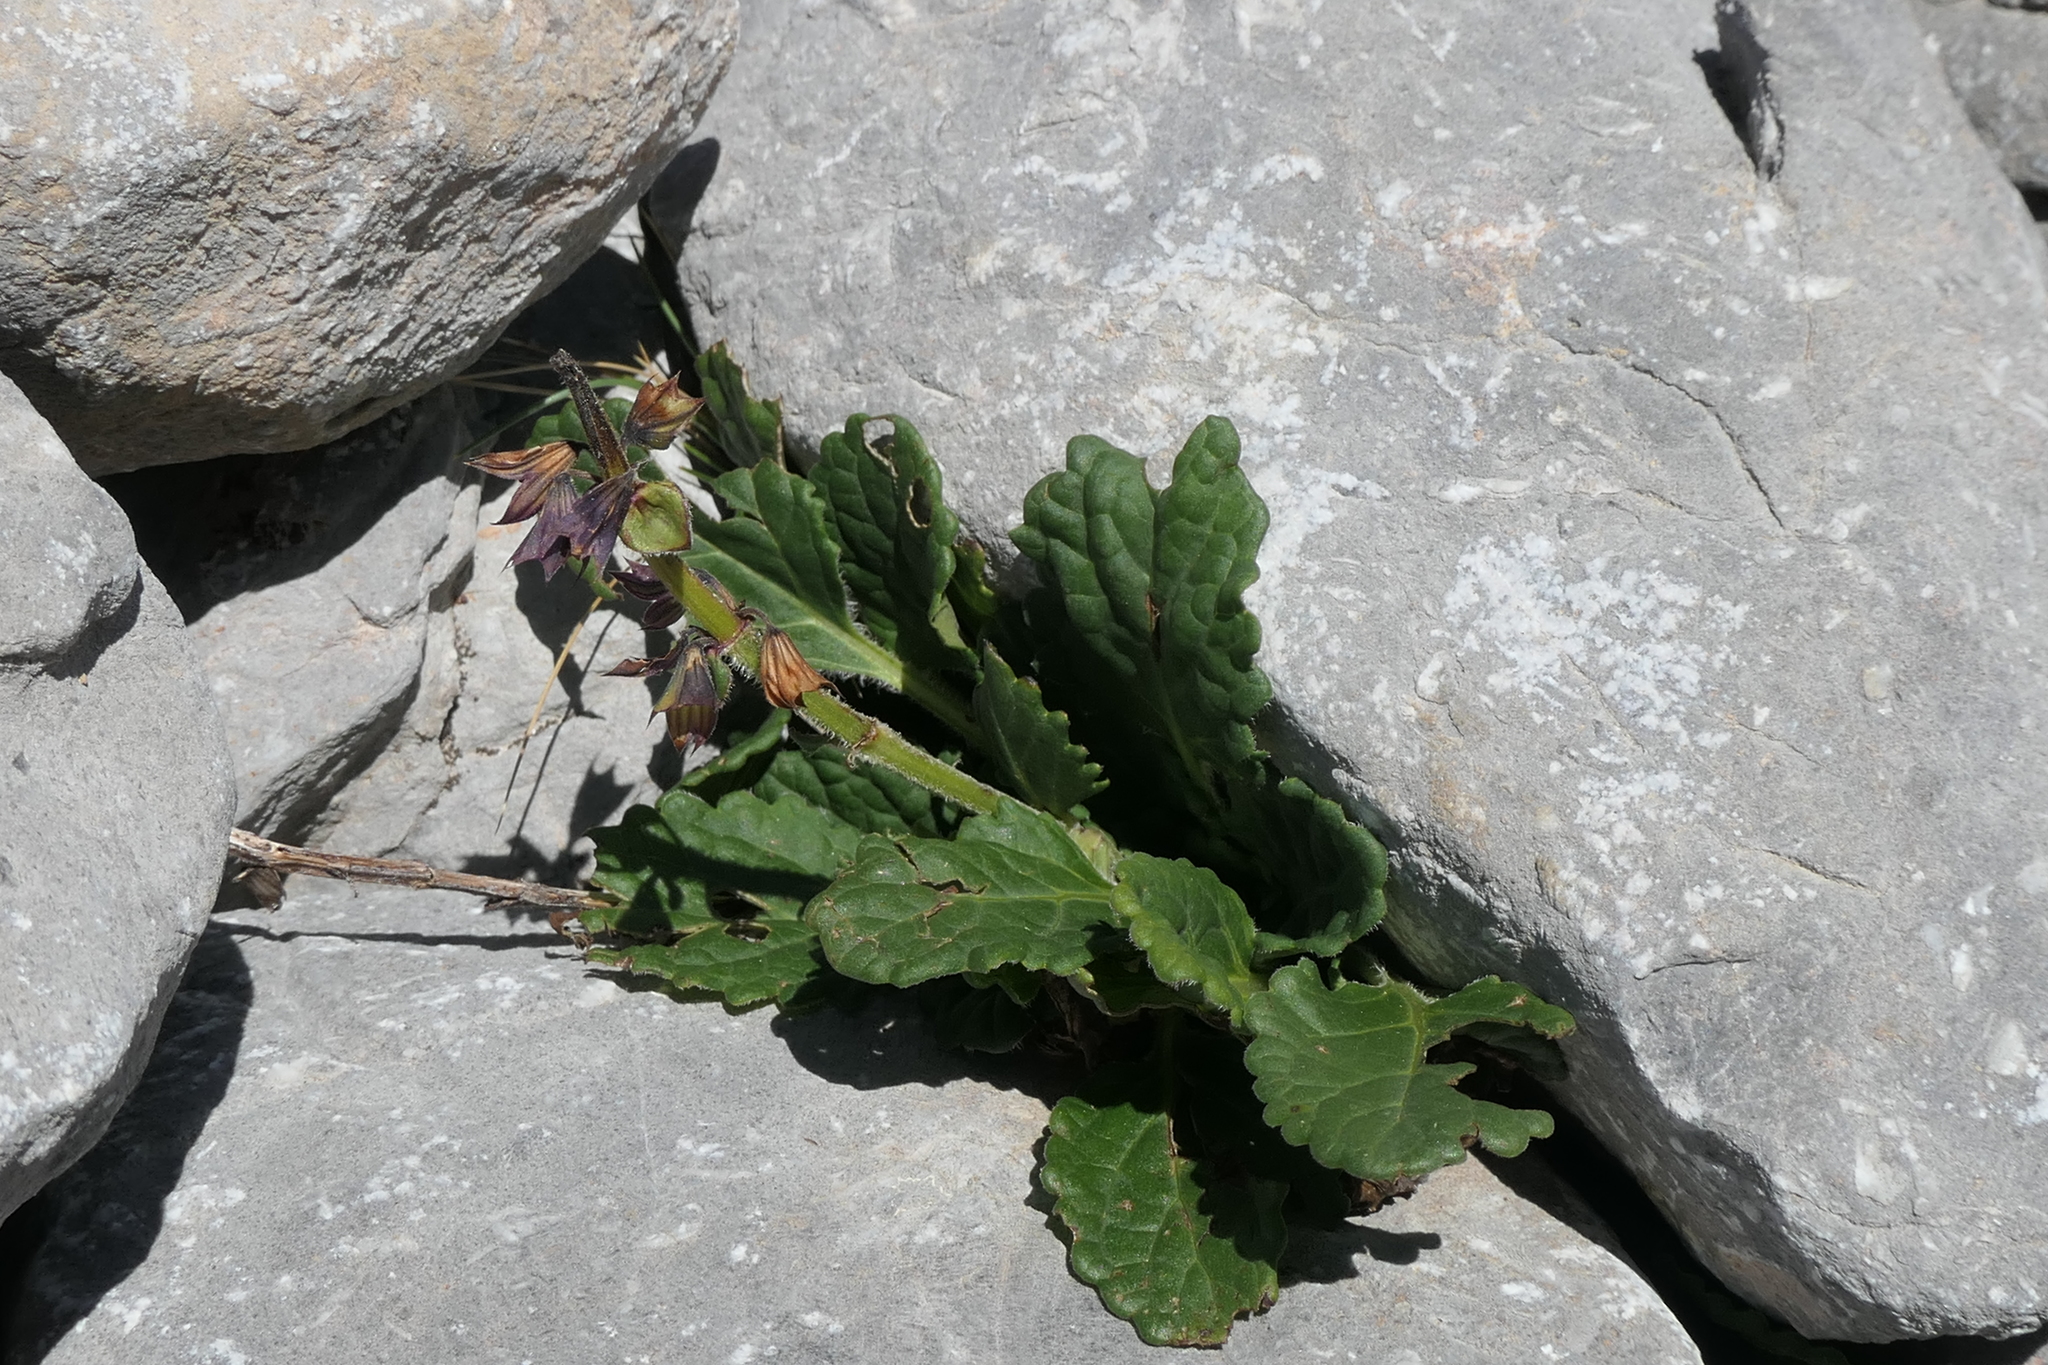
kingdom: Plantae
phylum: Tracheophyta
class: Magnoliopsida
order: Lamiales
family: Lamiaceae
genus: Horminum
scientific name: Horminum pyrenaicum
